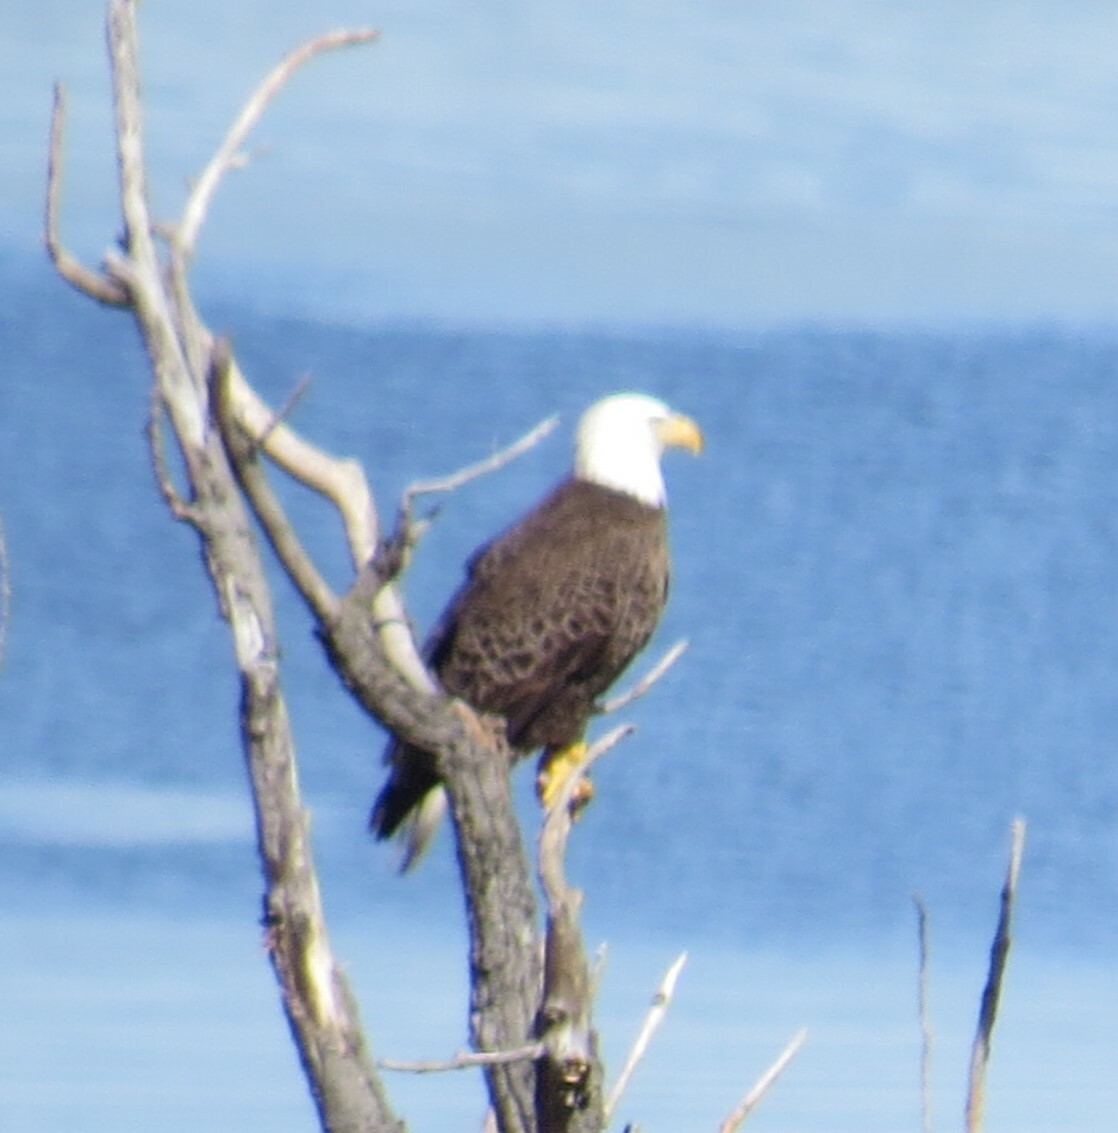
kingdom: Animalia
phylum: Chordata
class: Aves
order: Accipitriformes
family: Accipitridae
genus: Haliaeetus
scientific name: Haliaeetus leucocephalus
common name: Bald eagle
